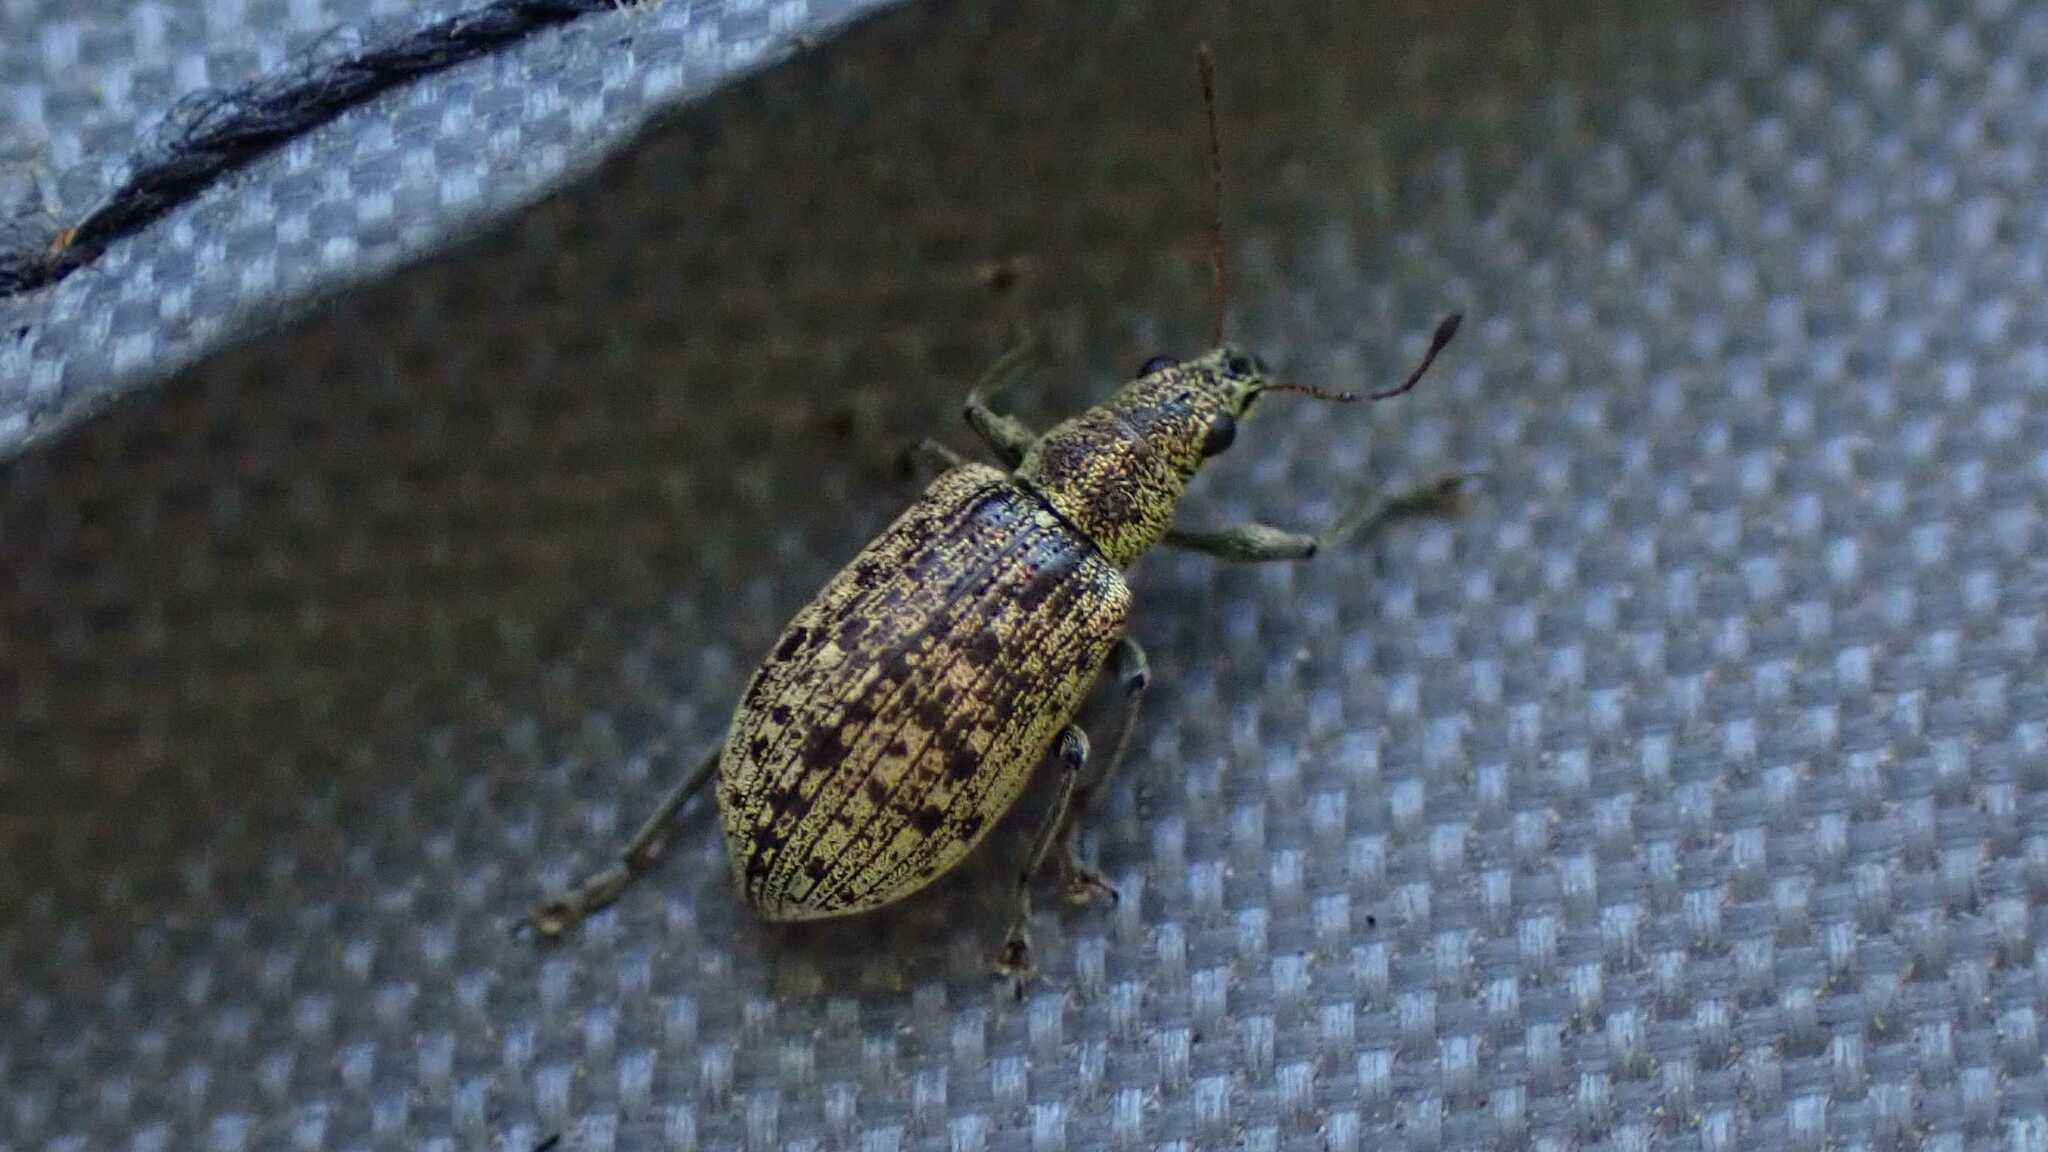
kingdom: Animalia
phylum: Arthropoda
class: Insecta
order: Coleoptera
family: Curculionidae
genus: Polydrusus
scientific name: Polydrusus cervinus
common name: Weevil
